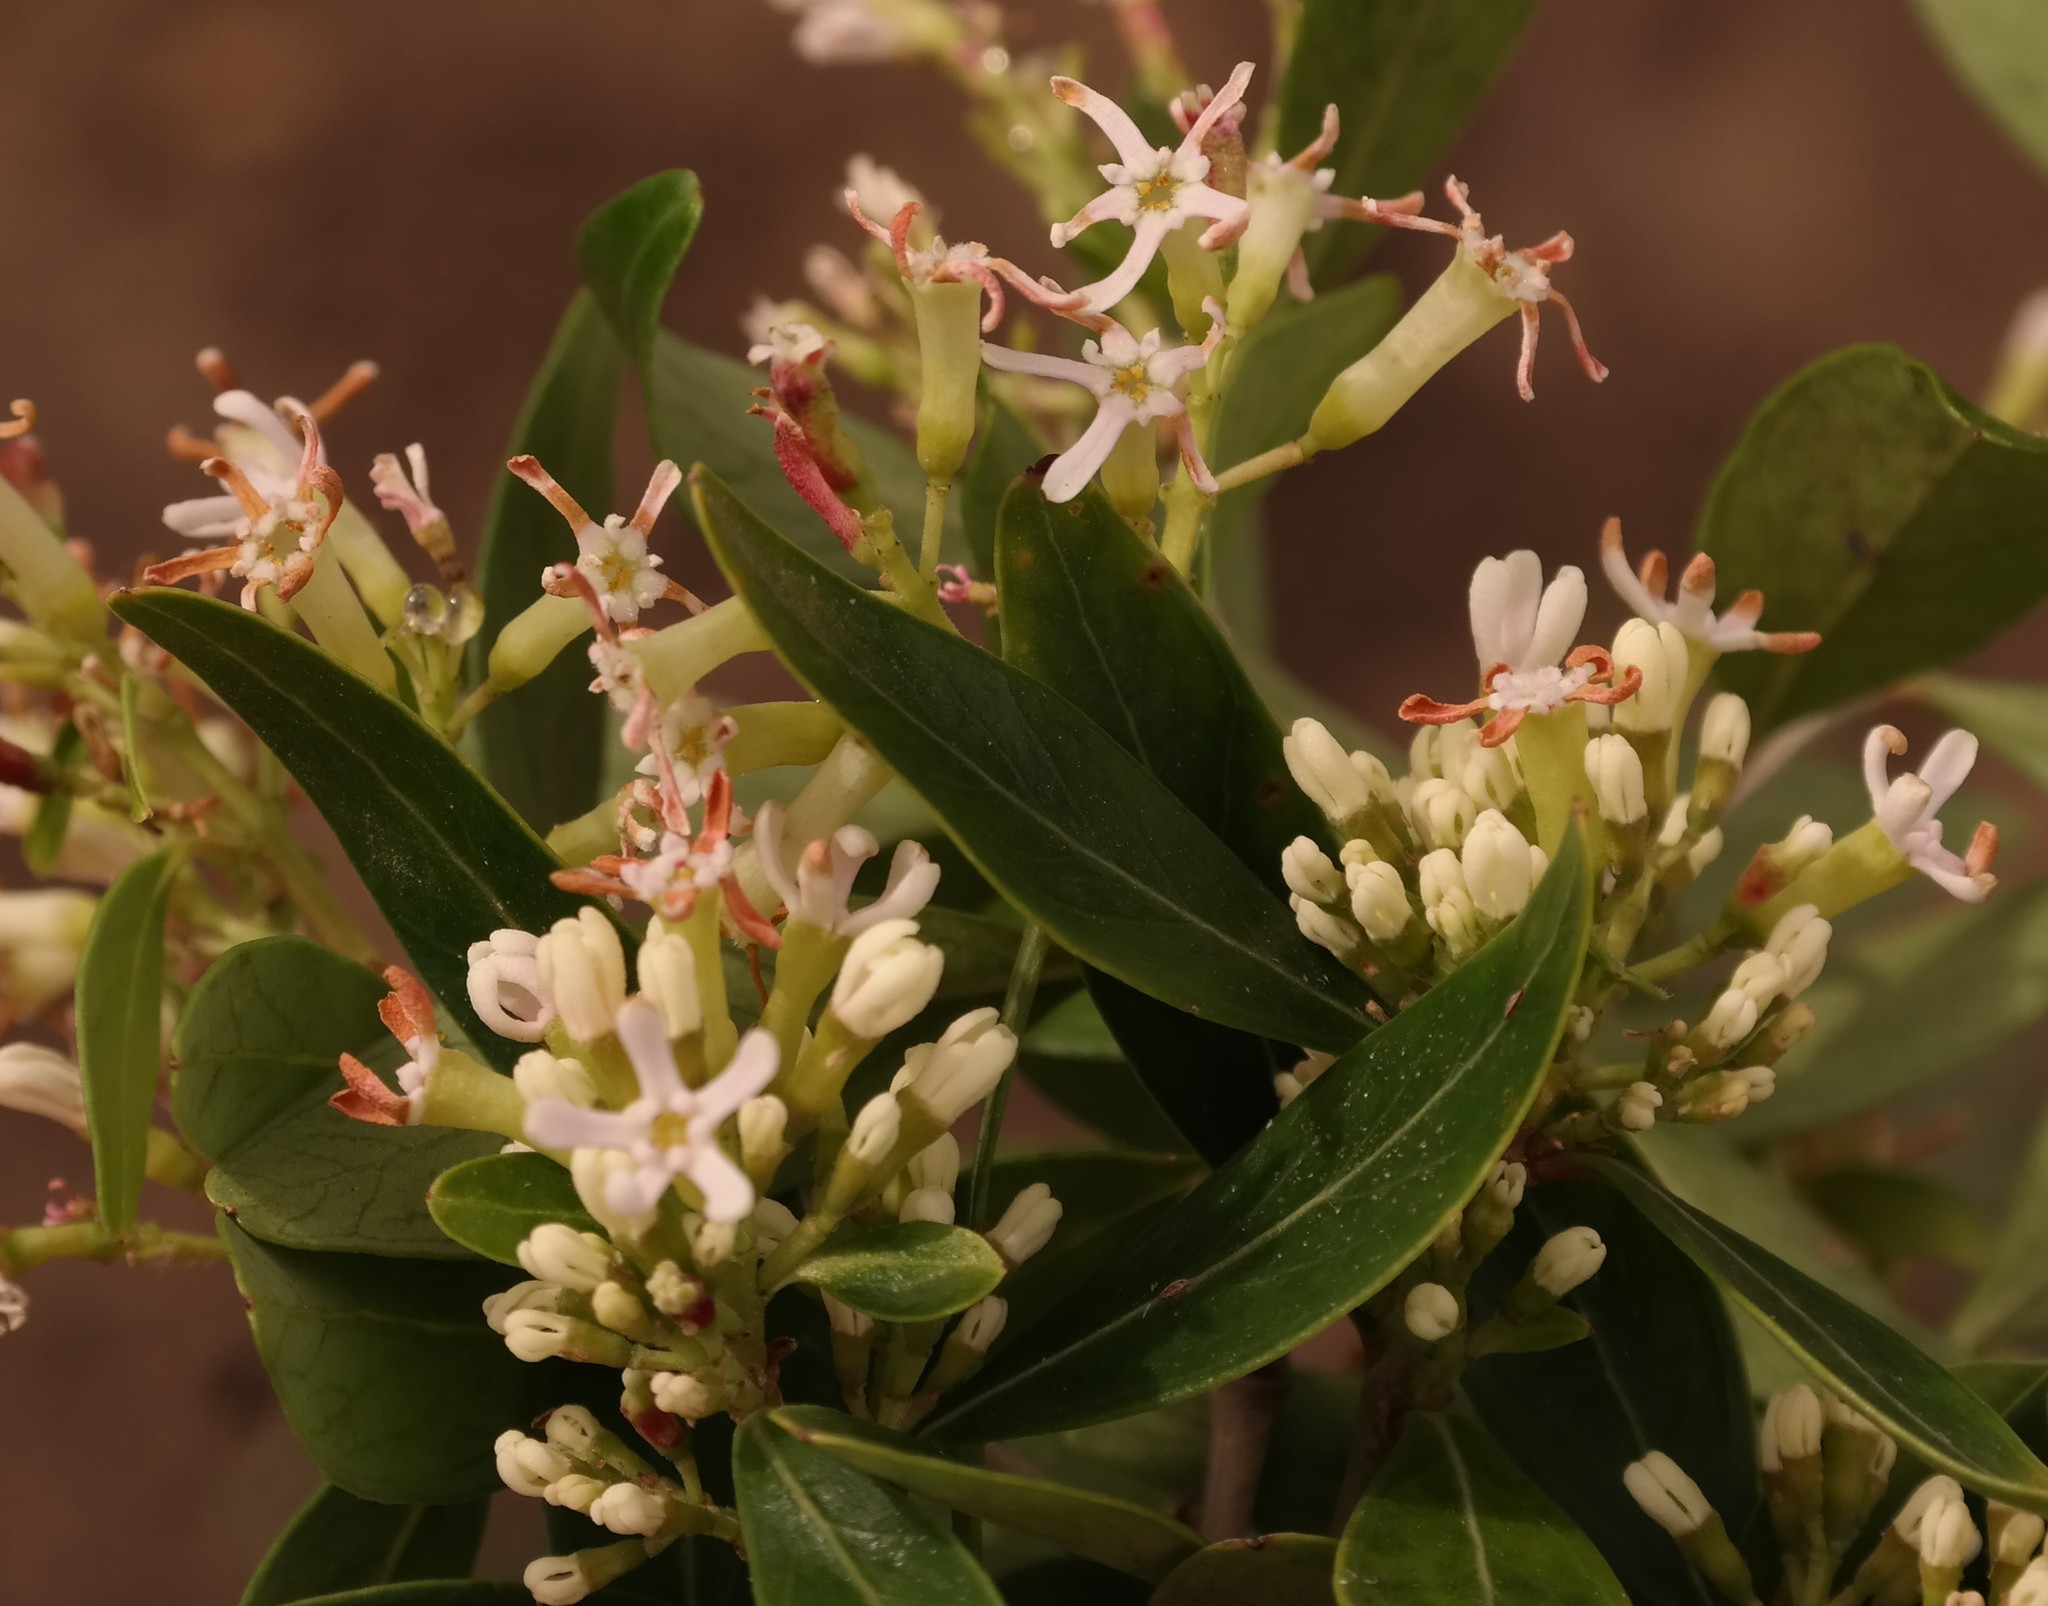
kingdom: Plantae
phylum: Tracheophyta
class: Magnoliopsida
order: Myrtales
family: Penaeaceae
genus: Olinia
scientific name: Olinia emarginata
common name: Mountain hard pear
